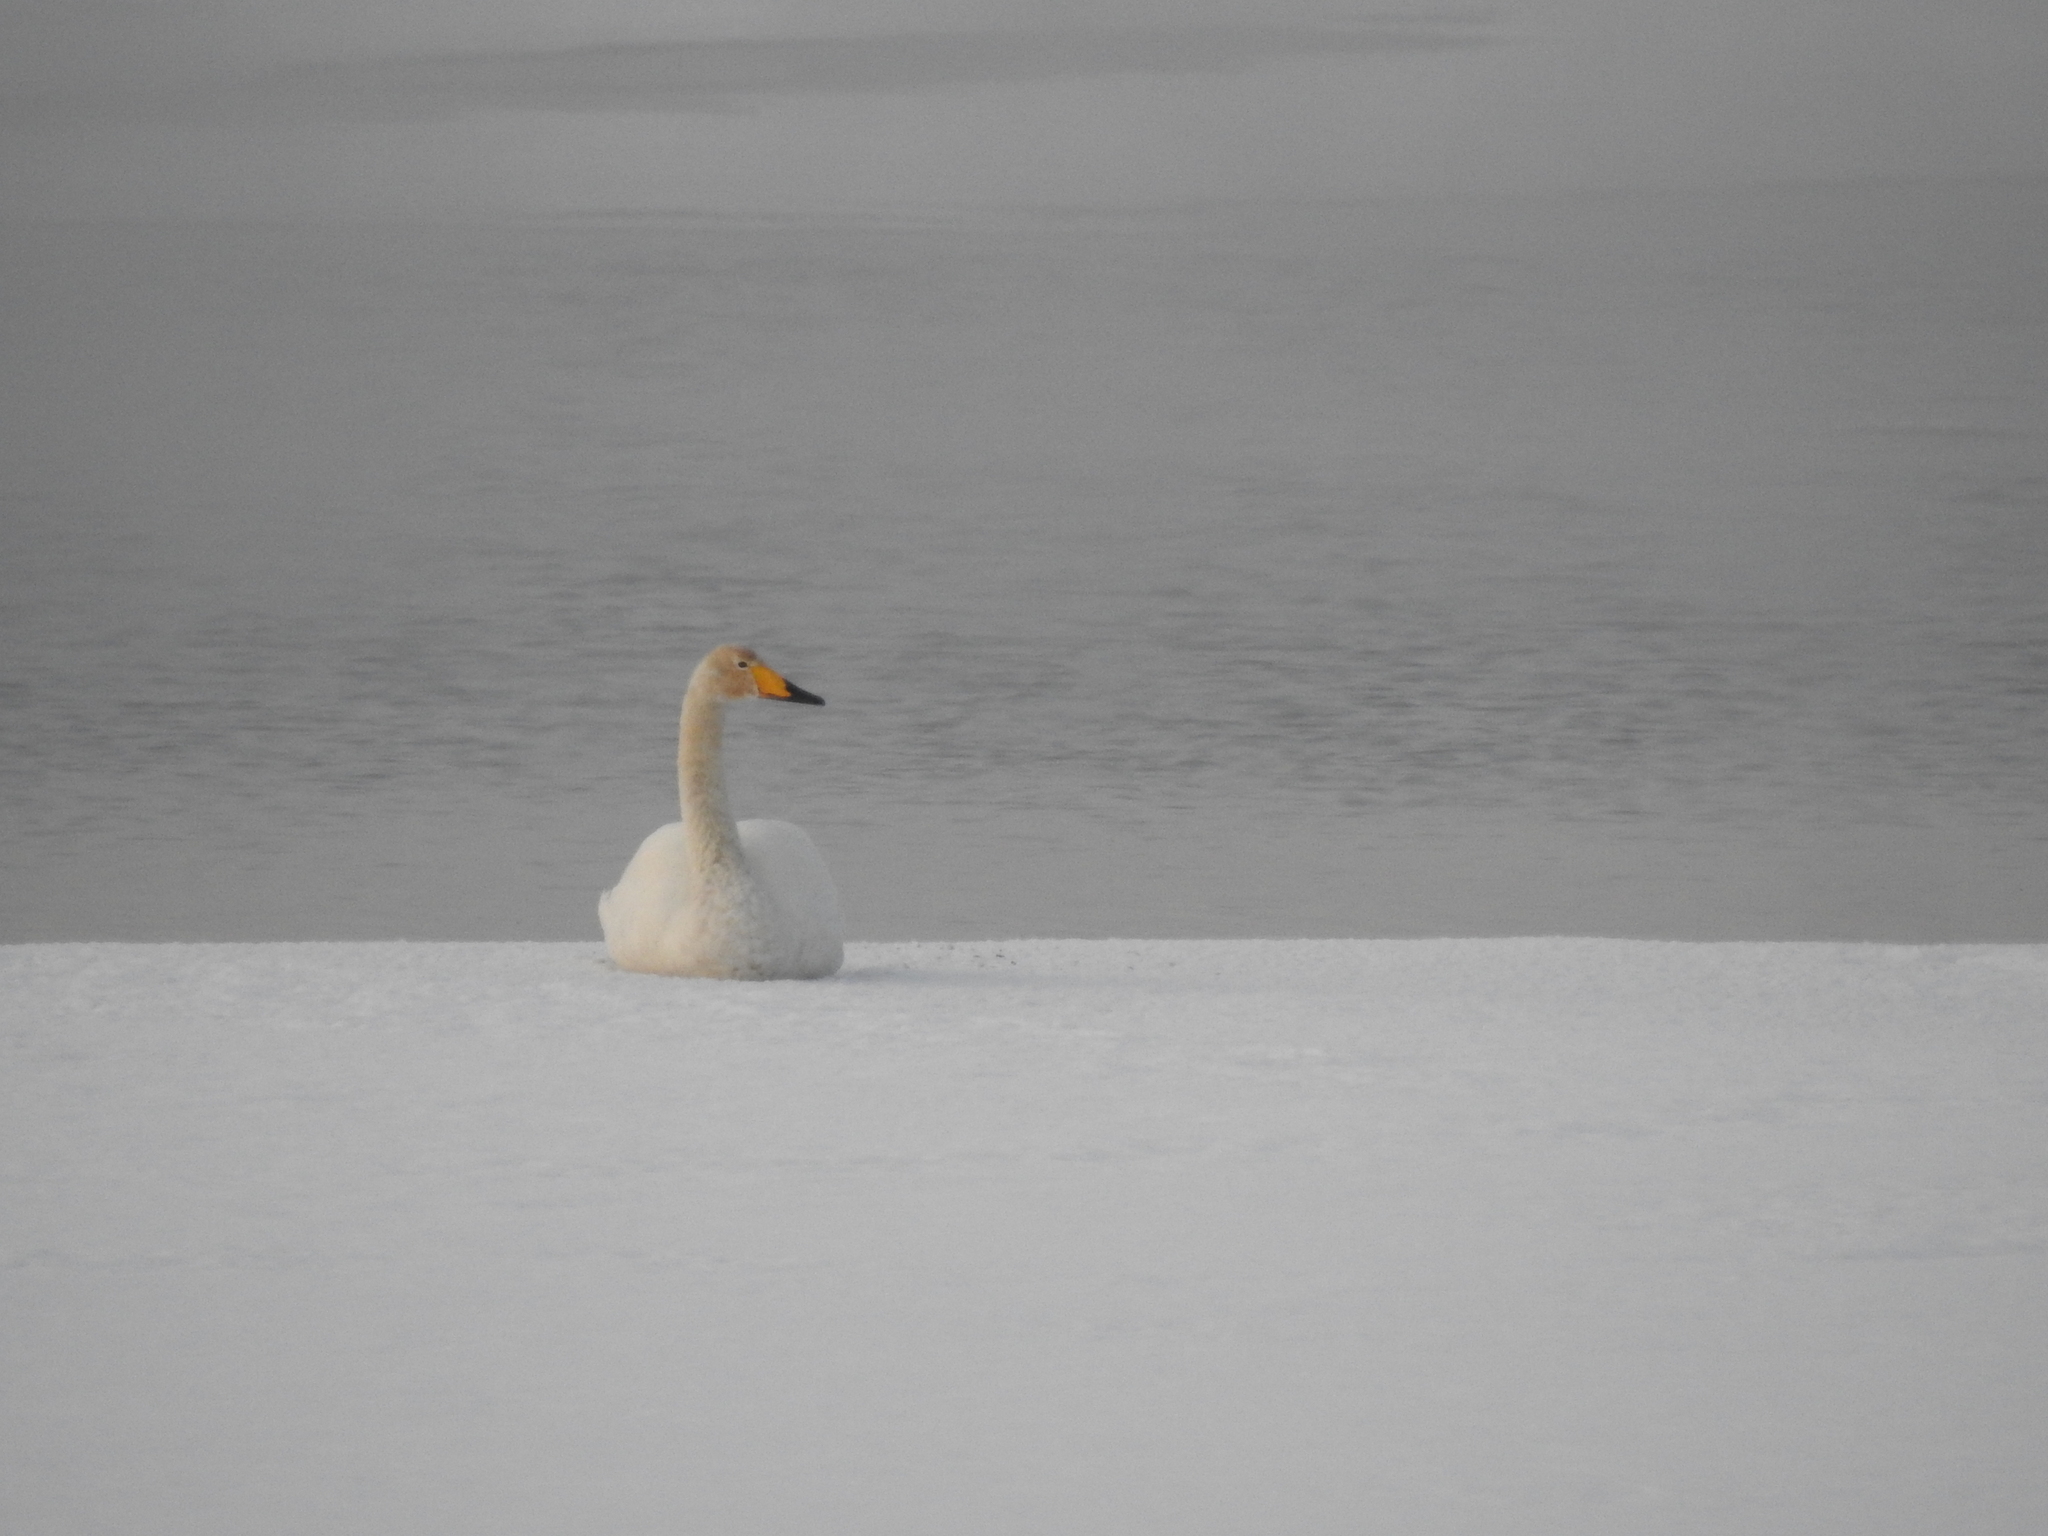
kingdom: Animalia
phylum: Chordata
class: Aves
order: Anseriformes
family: Anatidae
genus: Cygnus
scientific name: Cygnus cygnus
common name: Whooper swan
